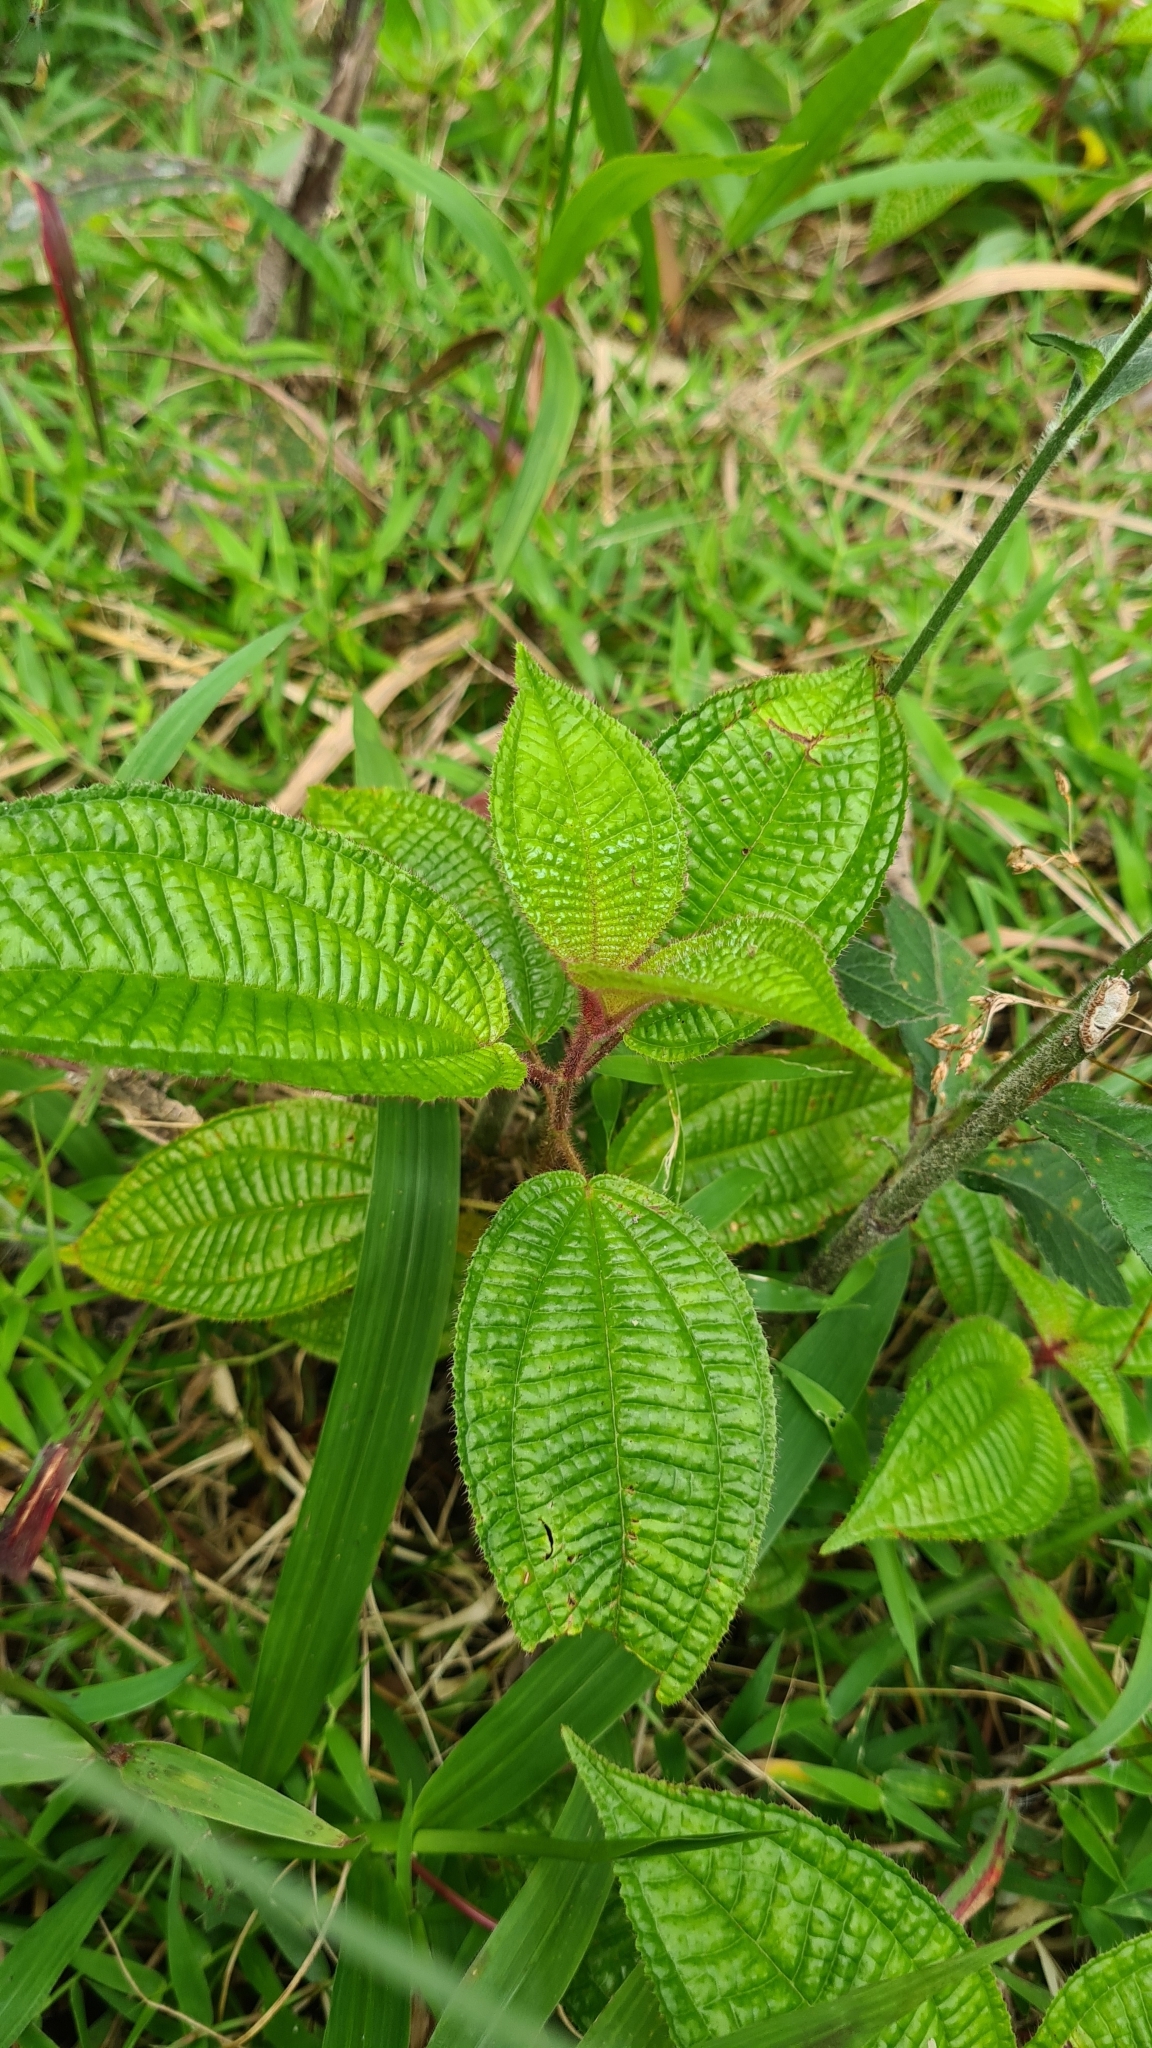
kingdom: Plantae
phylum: Tracheophyta
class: Magnoliopsida
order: Myrtales
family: Melastomataceae
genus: Miconia
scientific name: Miconia crenata
